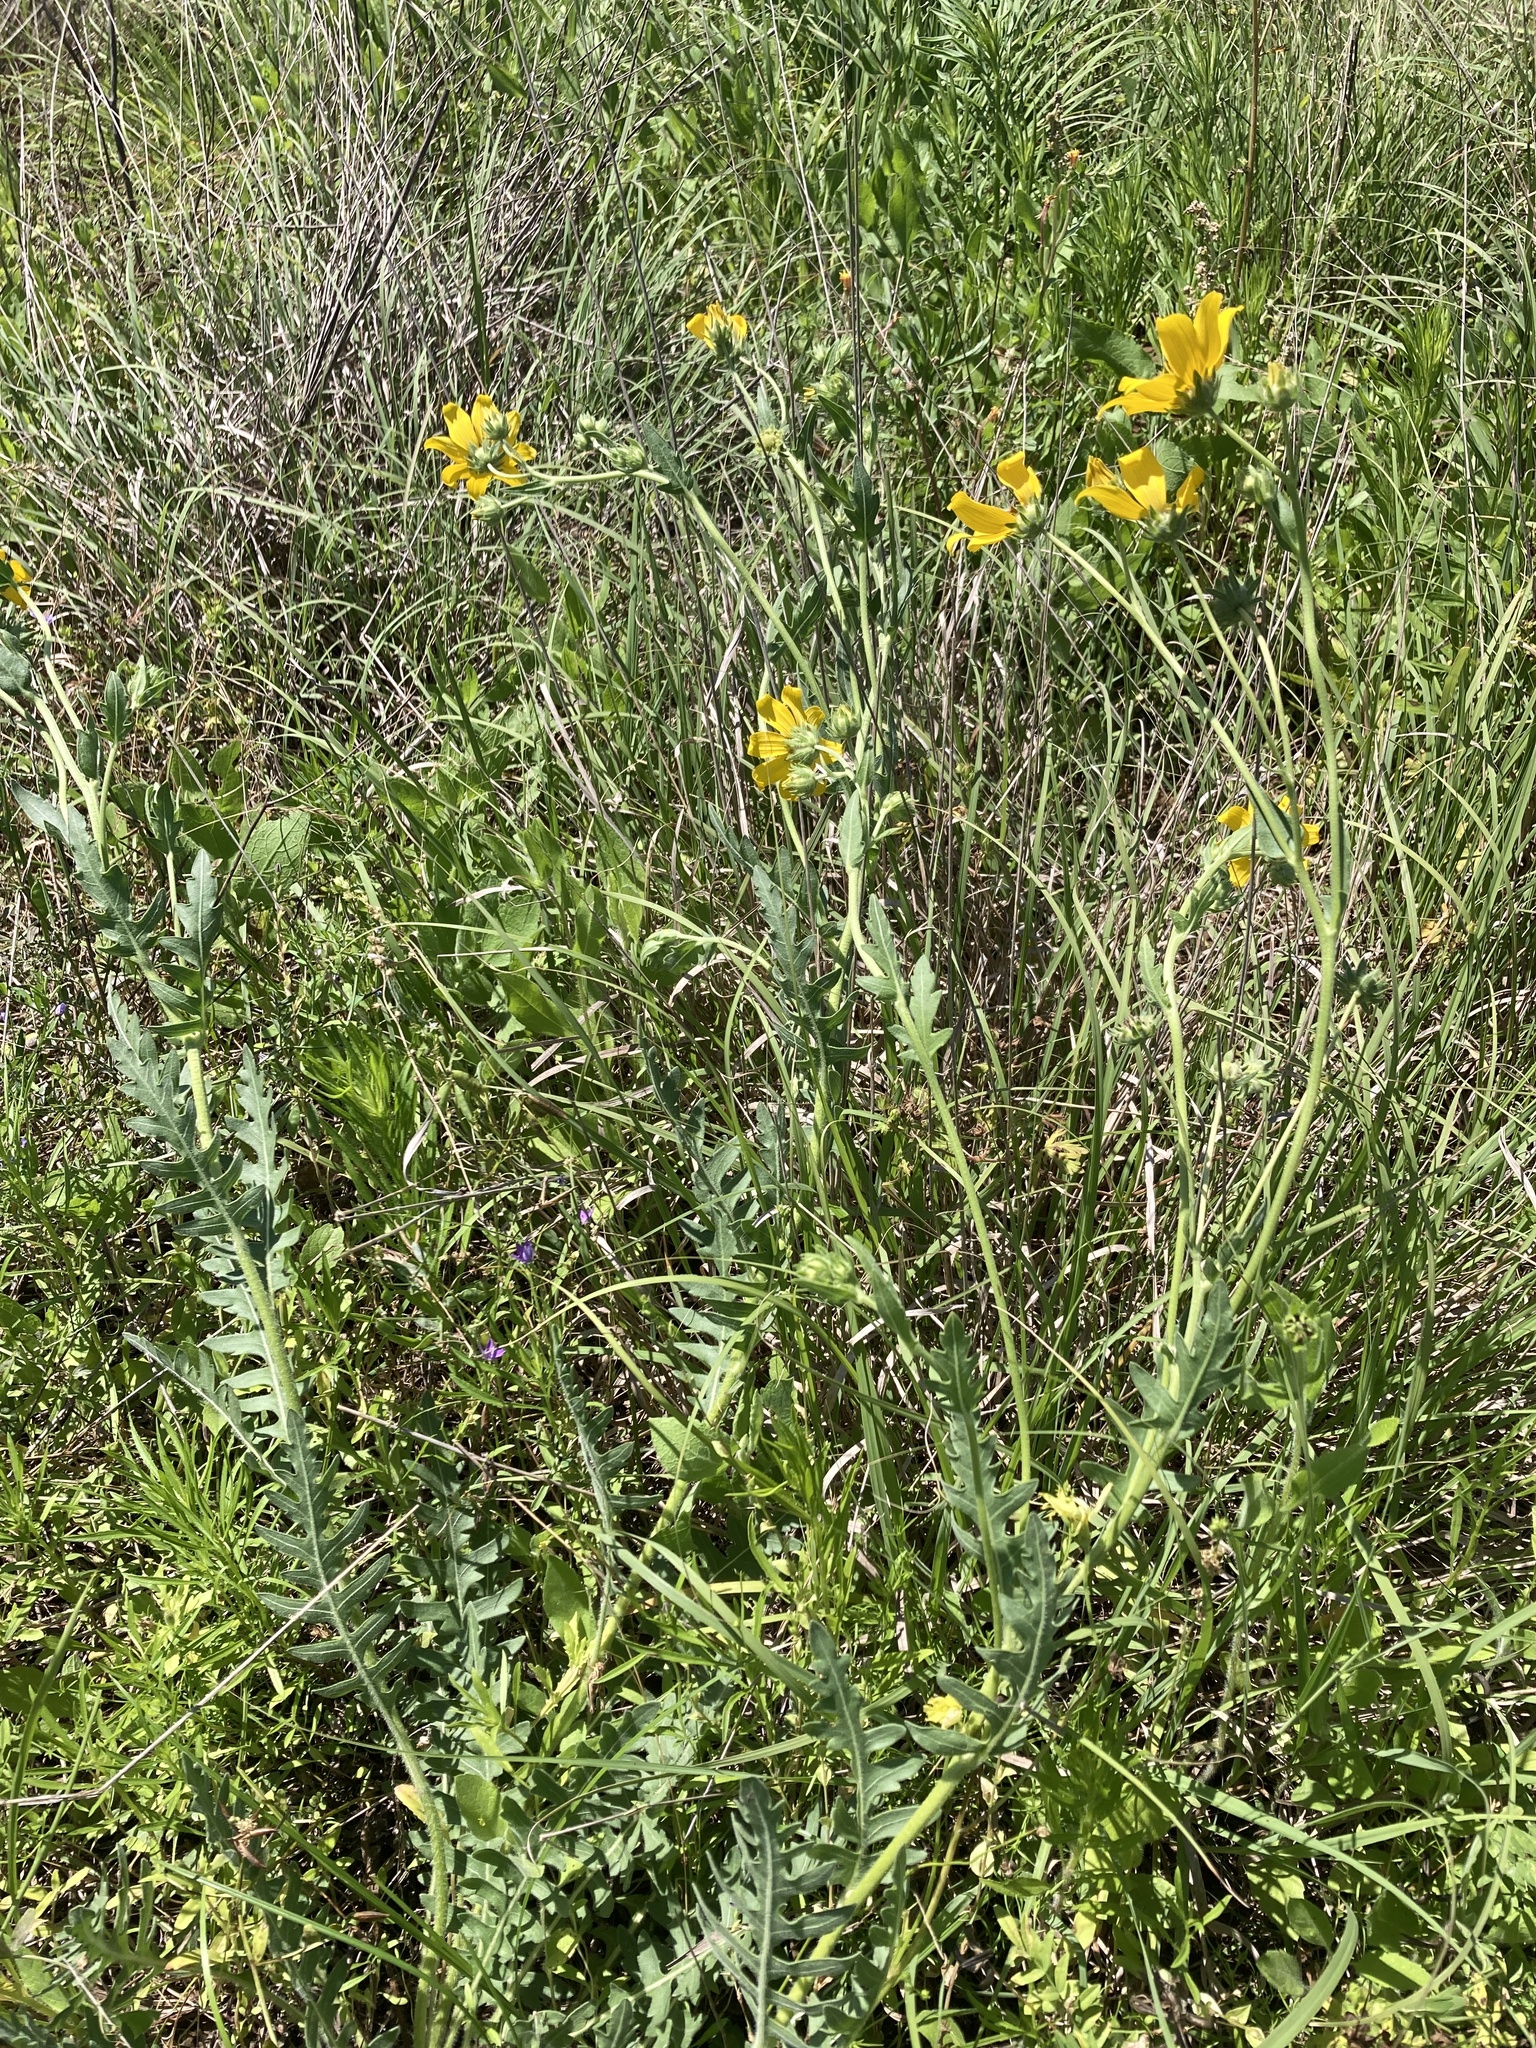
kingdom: Plantae
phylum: Tracheophyta
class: Magnoliopsida
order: Asterales
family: Asteraceae
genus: Engelmannia
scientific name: Engelmannia peristenia
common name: Engelmann's daisy
